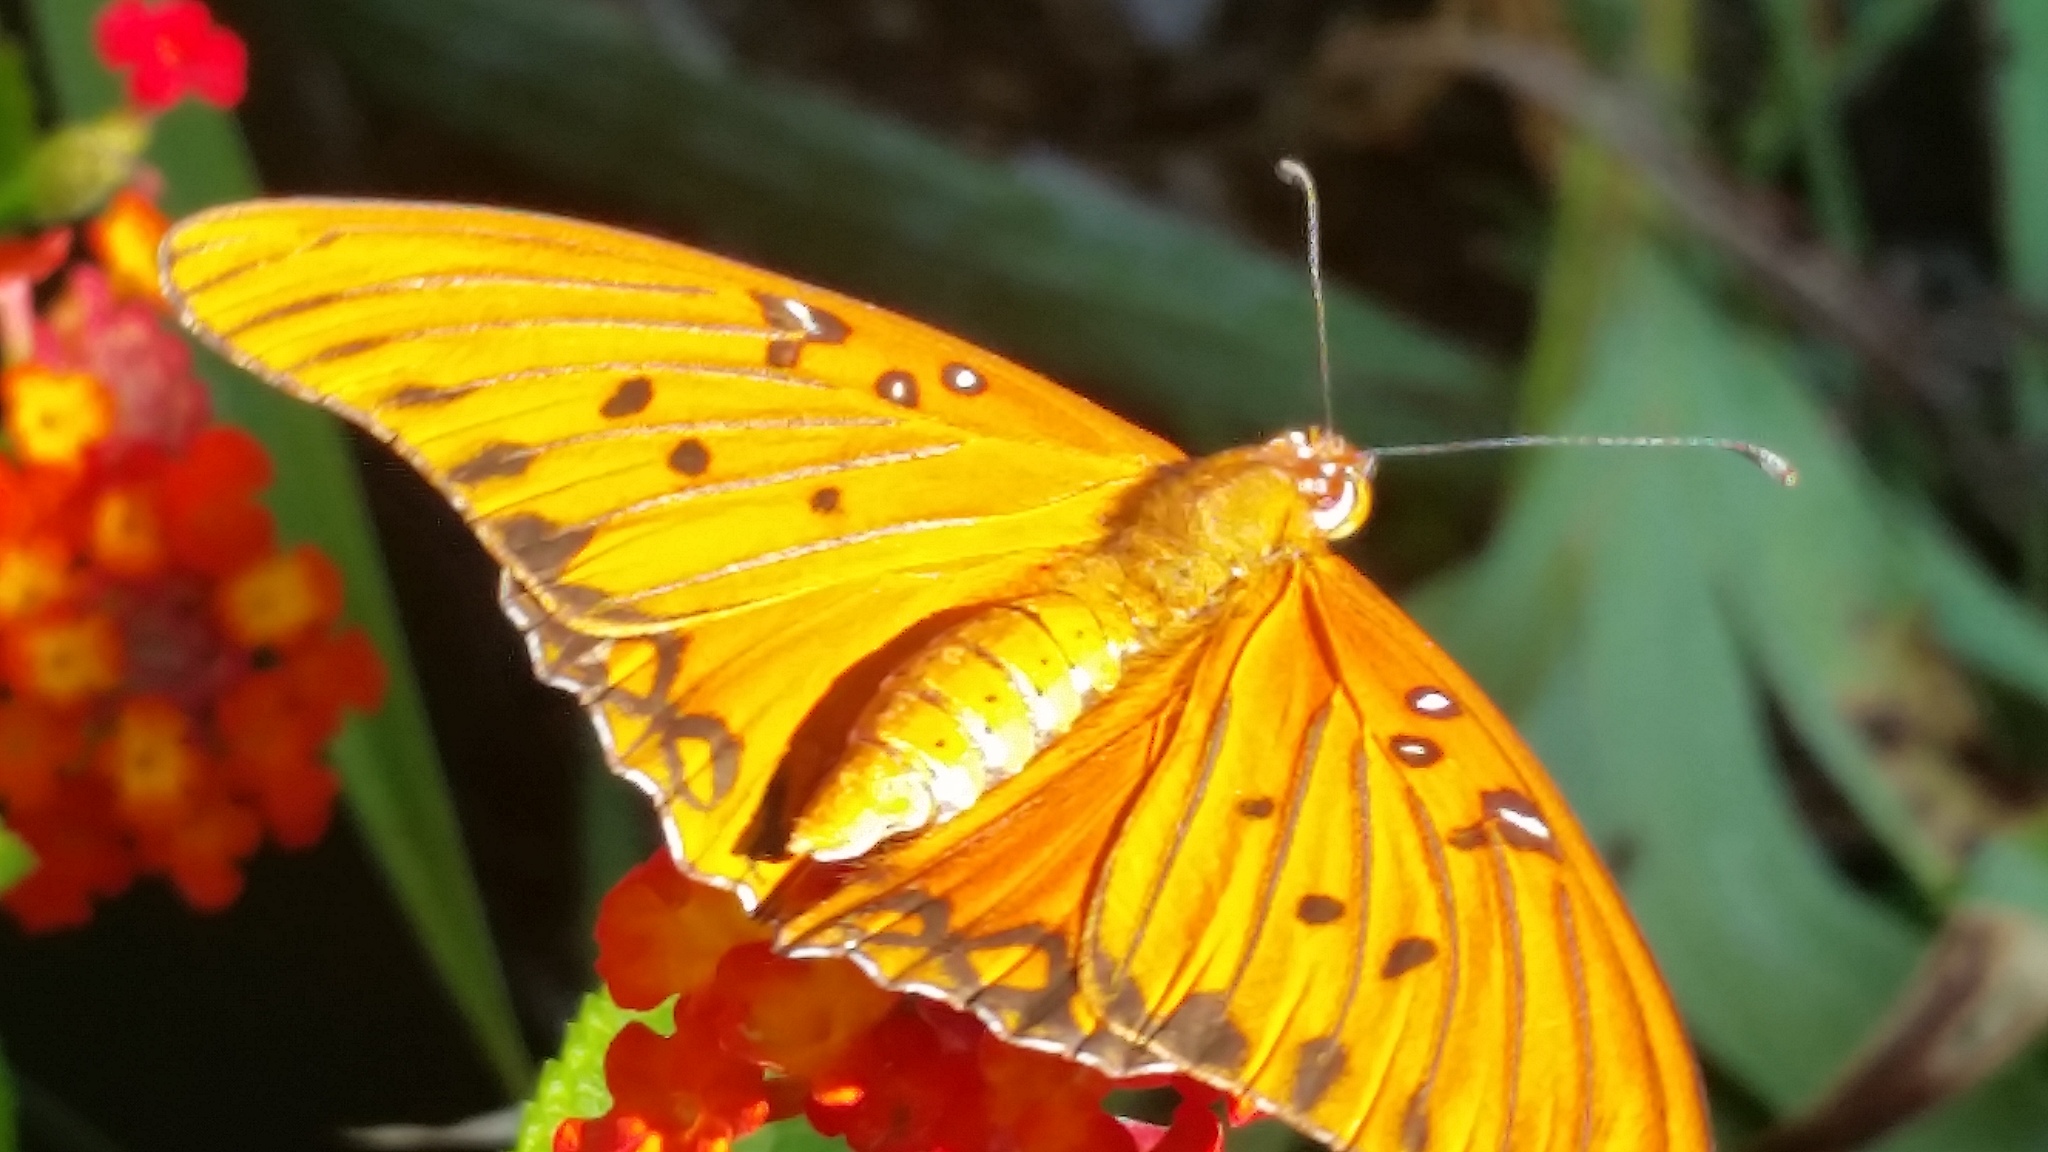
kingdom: Animalia
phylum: Arthropoda
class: Insecta
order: Lepidoptera
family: Nymphalidae
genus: Dione
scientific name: Dione vanillae
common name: Gulf fritillary
